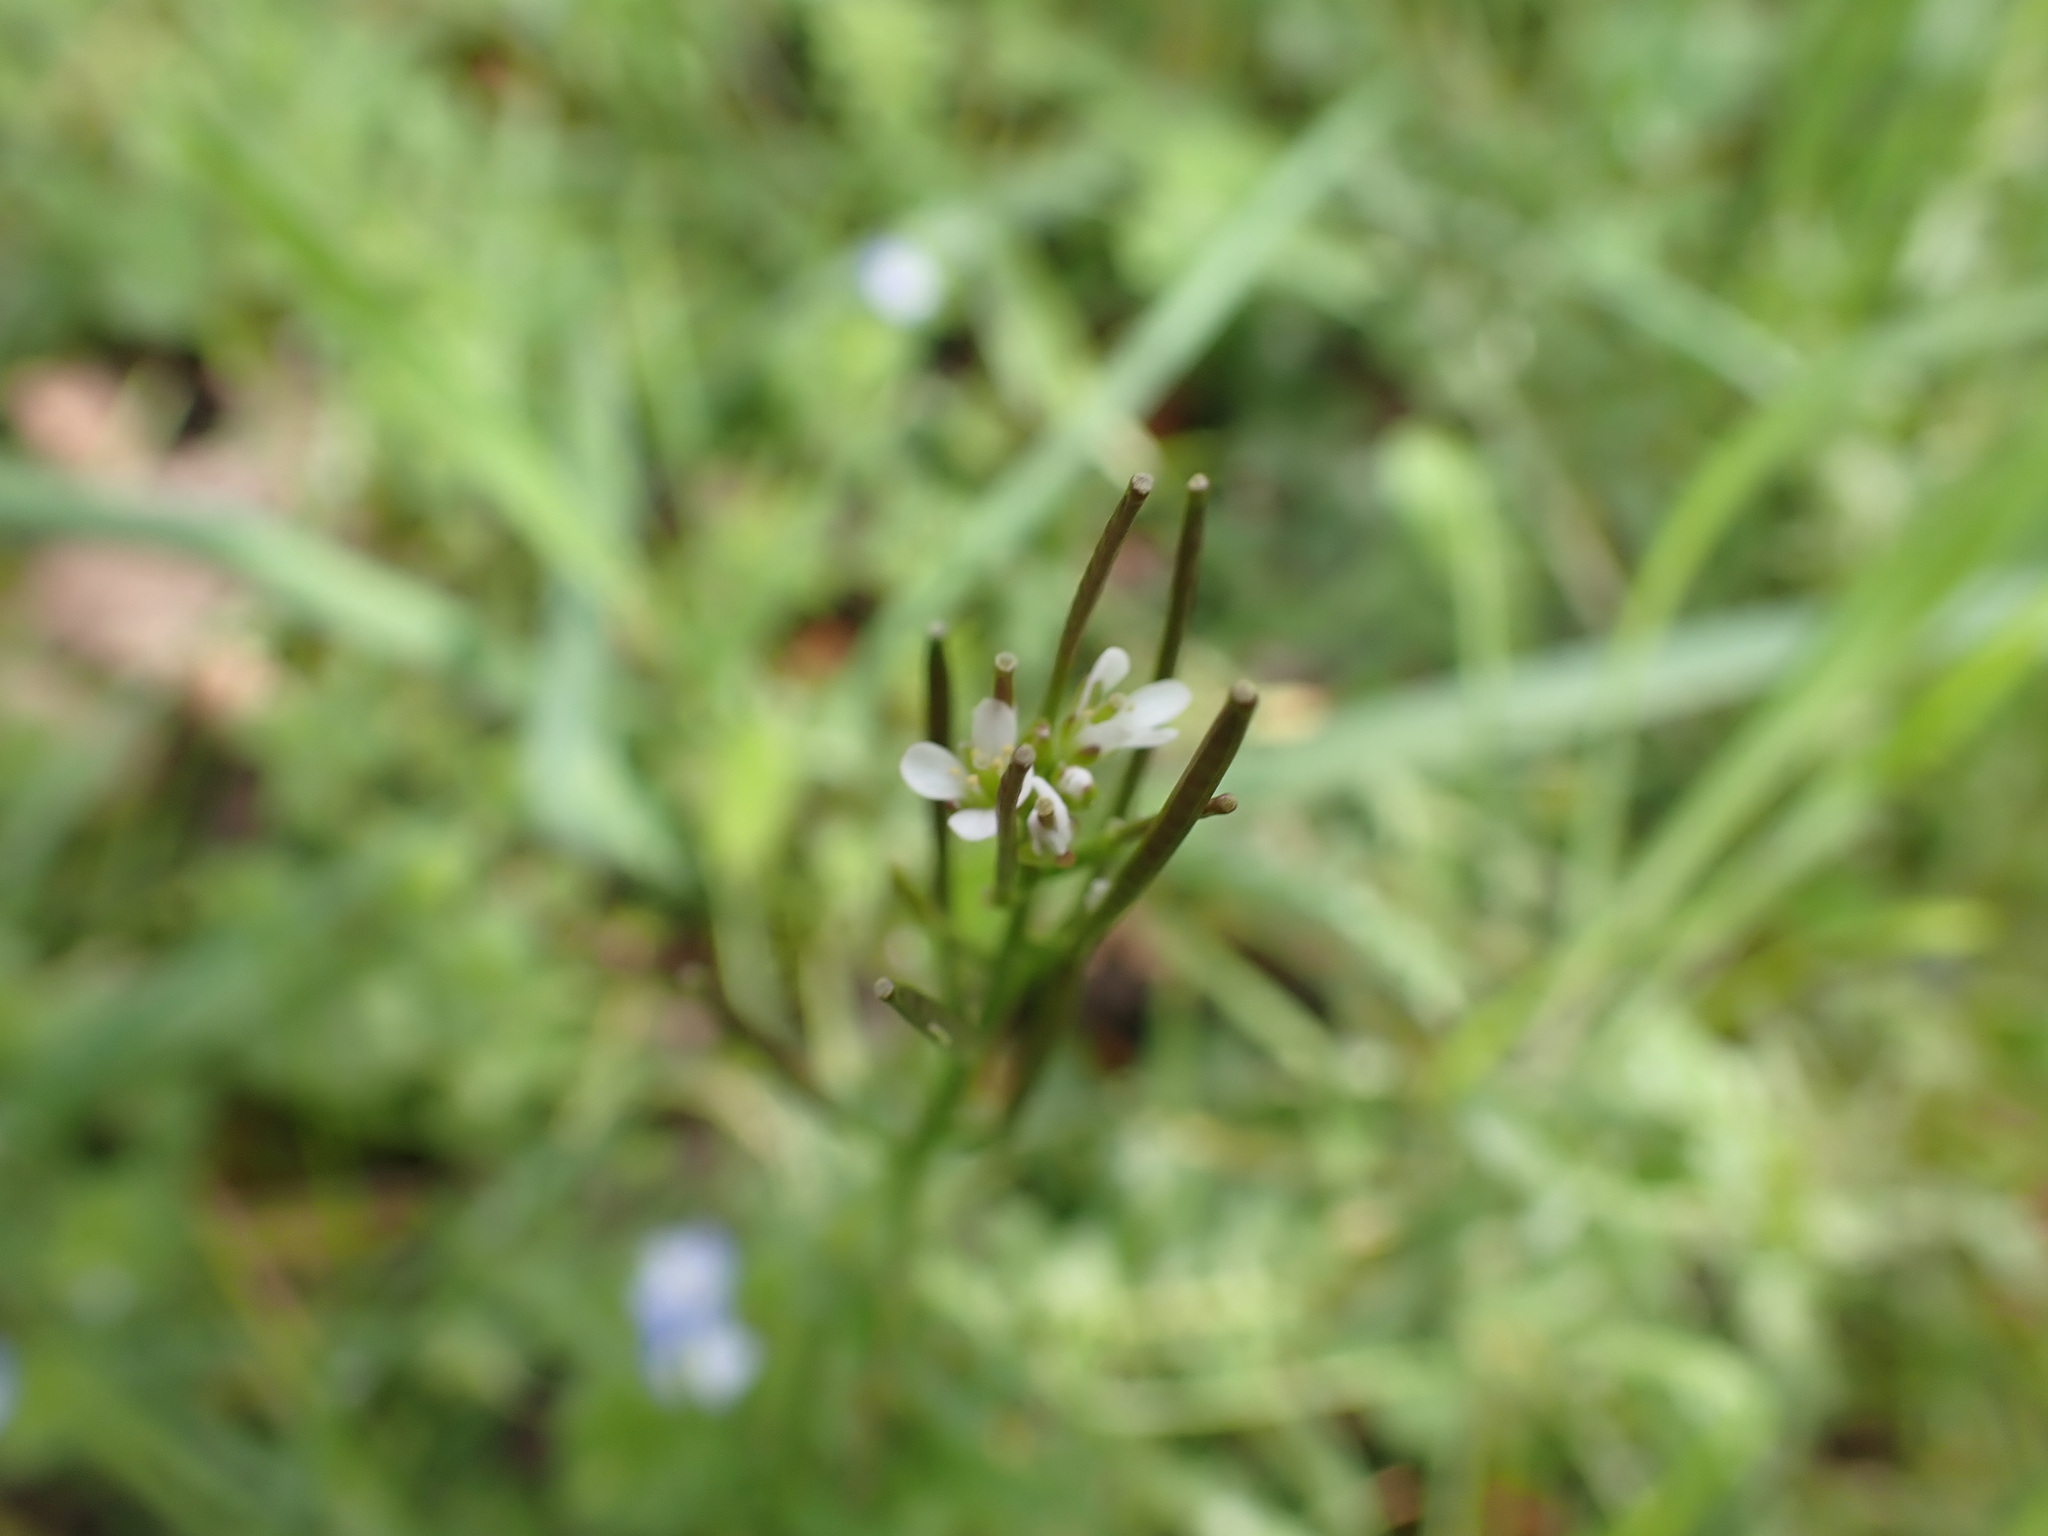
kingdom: Plantae
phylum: Tracheophyta
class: Magnoliopsida
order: Brassicales
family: Brassicaceae
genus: Cardamine
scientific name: Cardamine hirsuta
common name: Hairy bittercress
